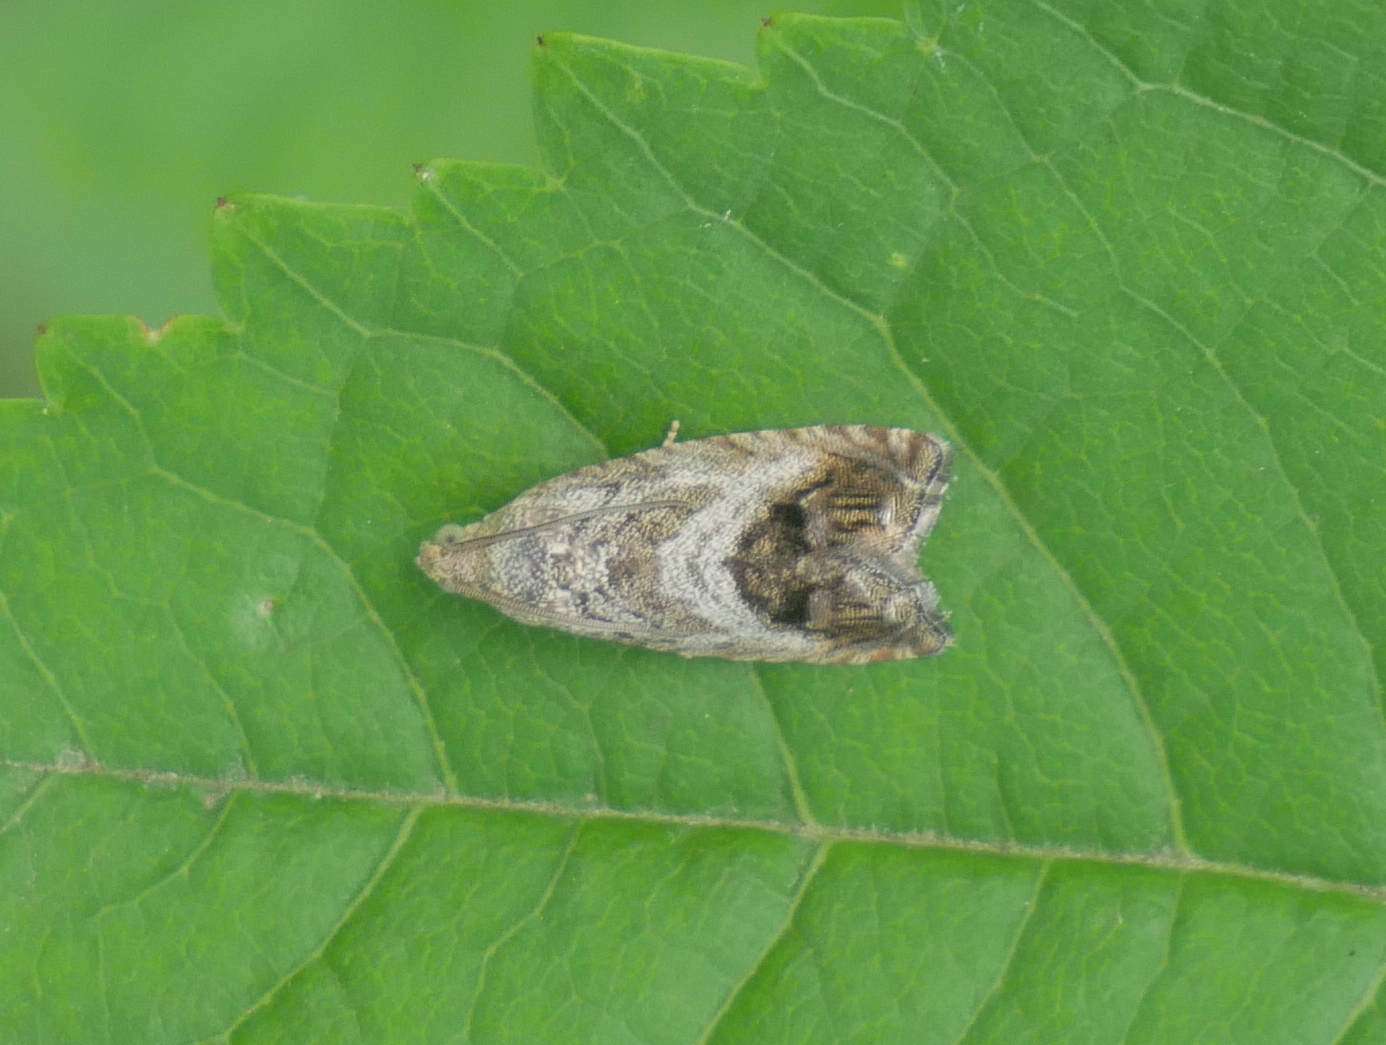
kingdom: Animalia
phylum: Arthropoda
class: Insecta
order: Lepidoptera
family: Tortricidae
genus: Cydia
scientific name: Cydia splendana
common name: De: kastanienwickler, eichenwickler es: oruga de la castaña fr: carpocapse des châtaignes it: cidia o tortrice tardiva delle castagne pt: bichado das castanhas gb: acorn moth, chestnut fruit tortrix
